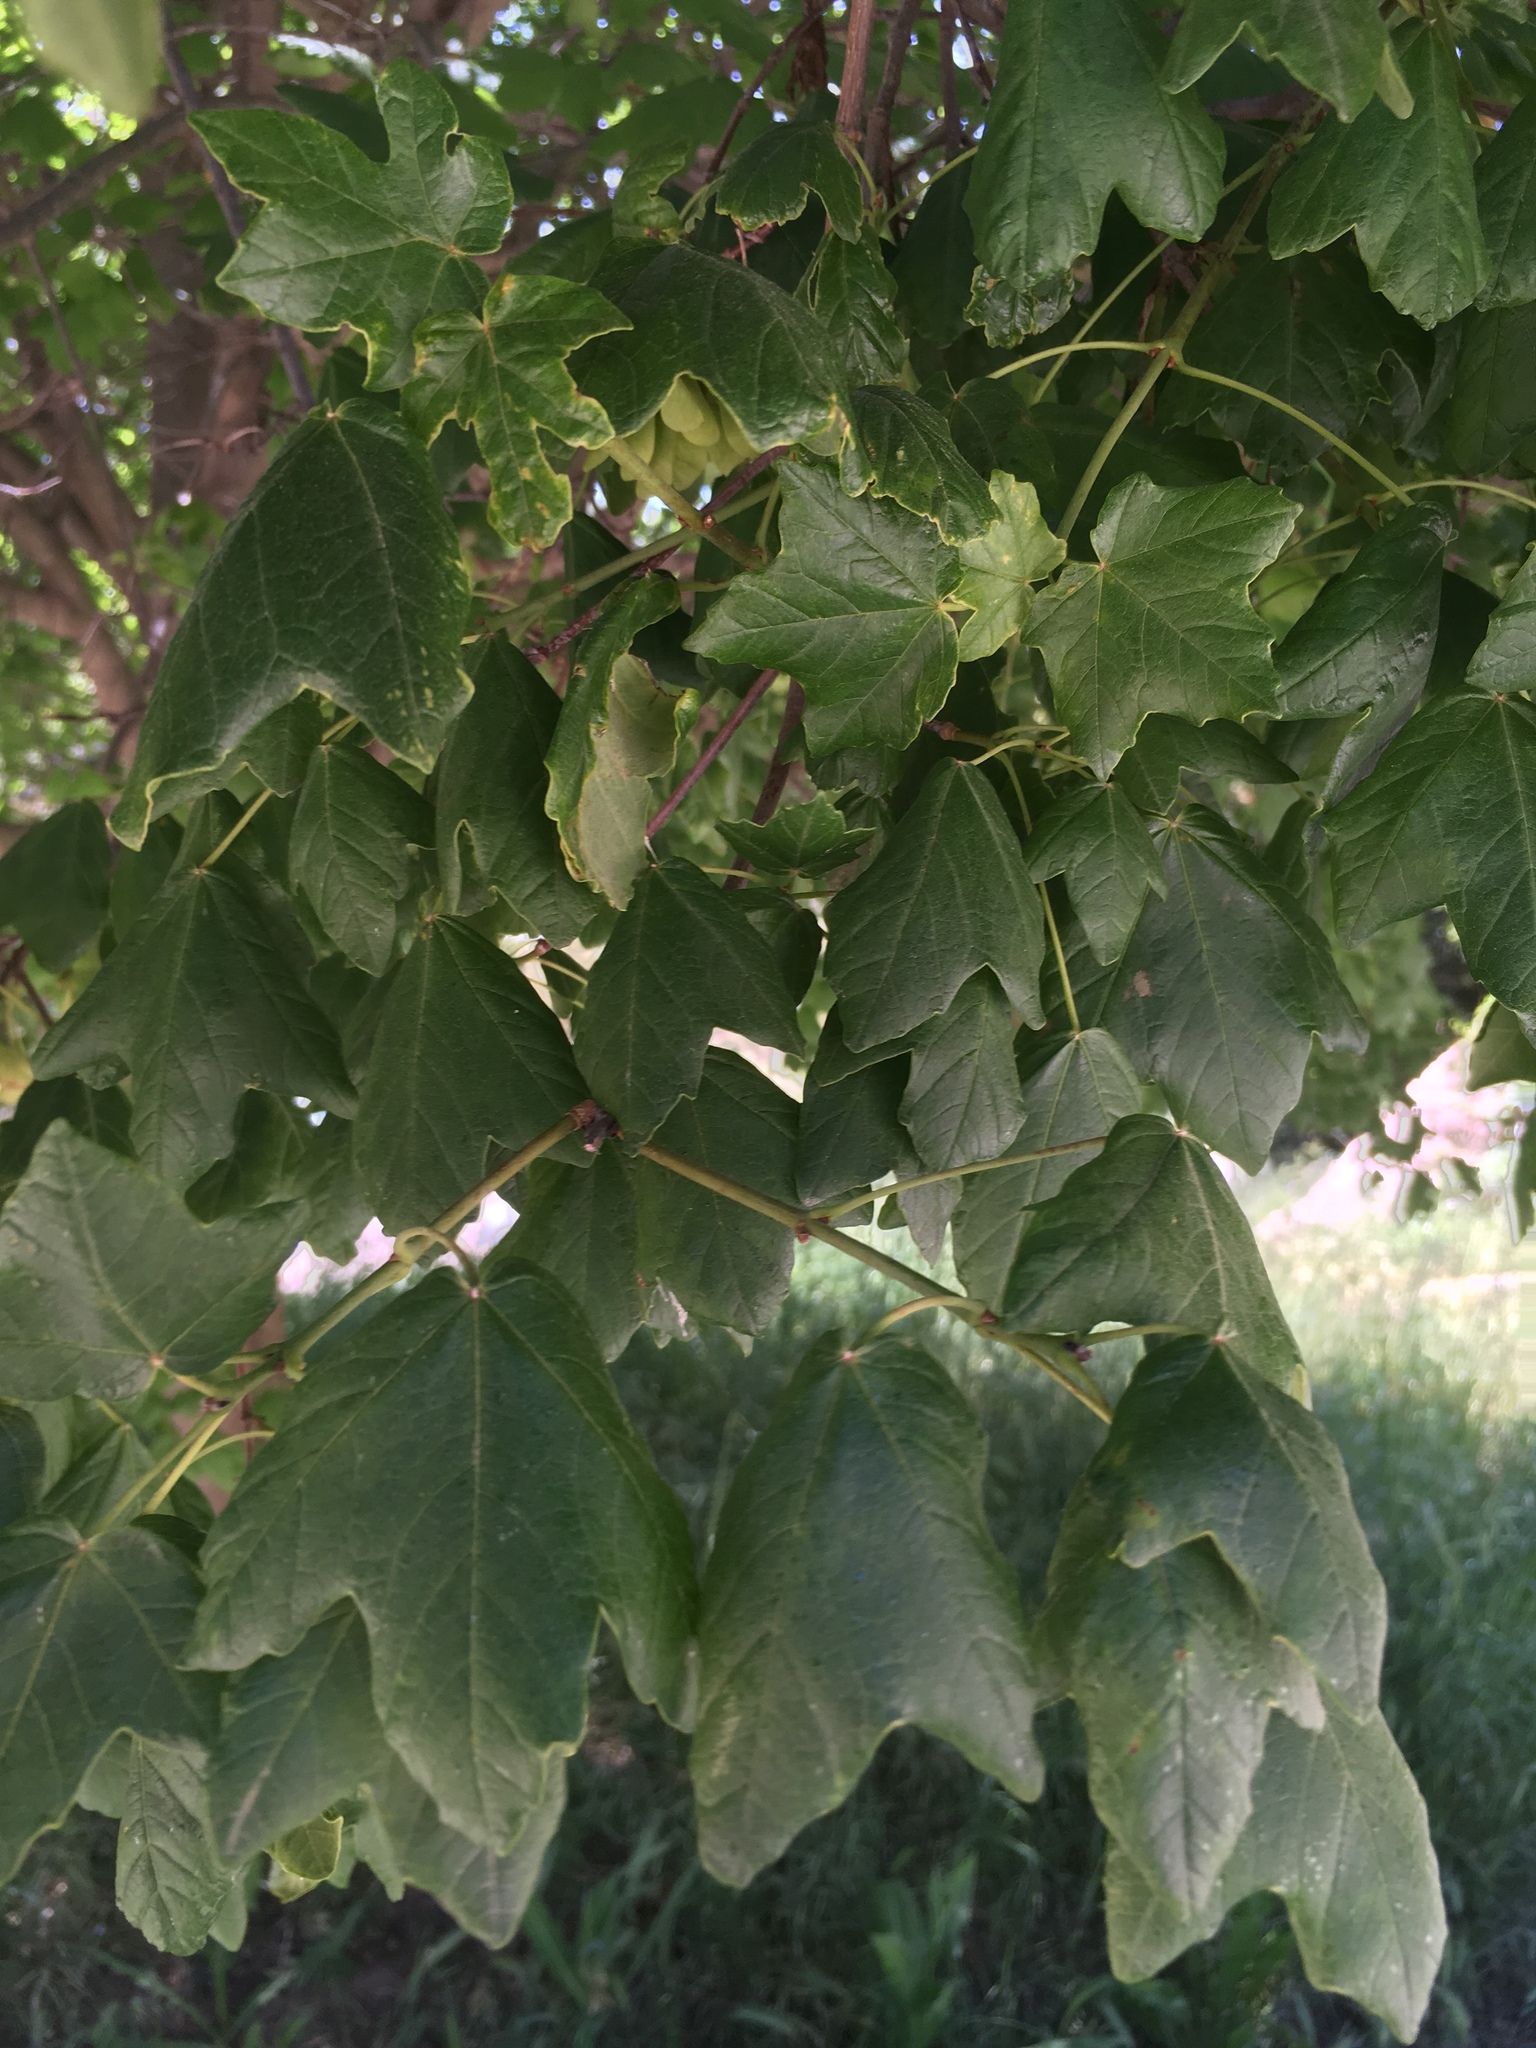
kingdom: Plantae
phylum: Tracheophyta
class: Magnoliopsida
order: Sapindales
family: Sapindaceae
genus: Acer
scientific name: Acer opalus
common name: Italian maple
